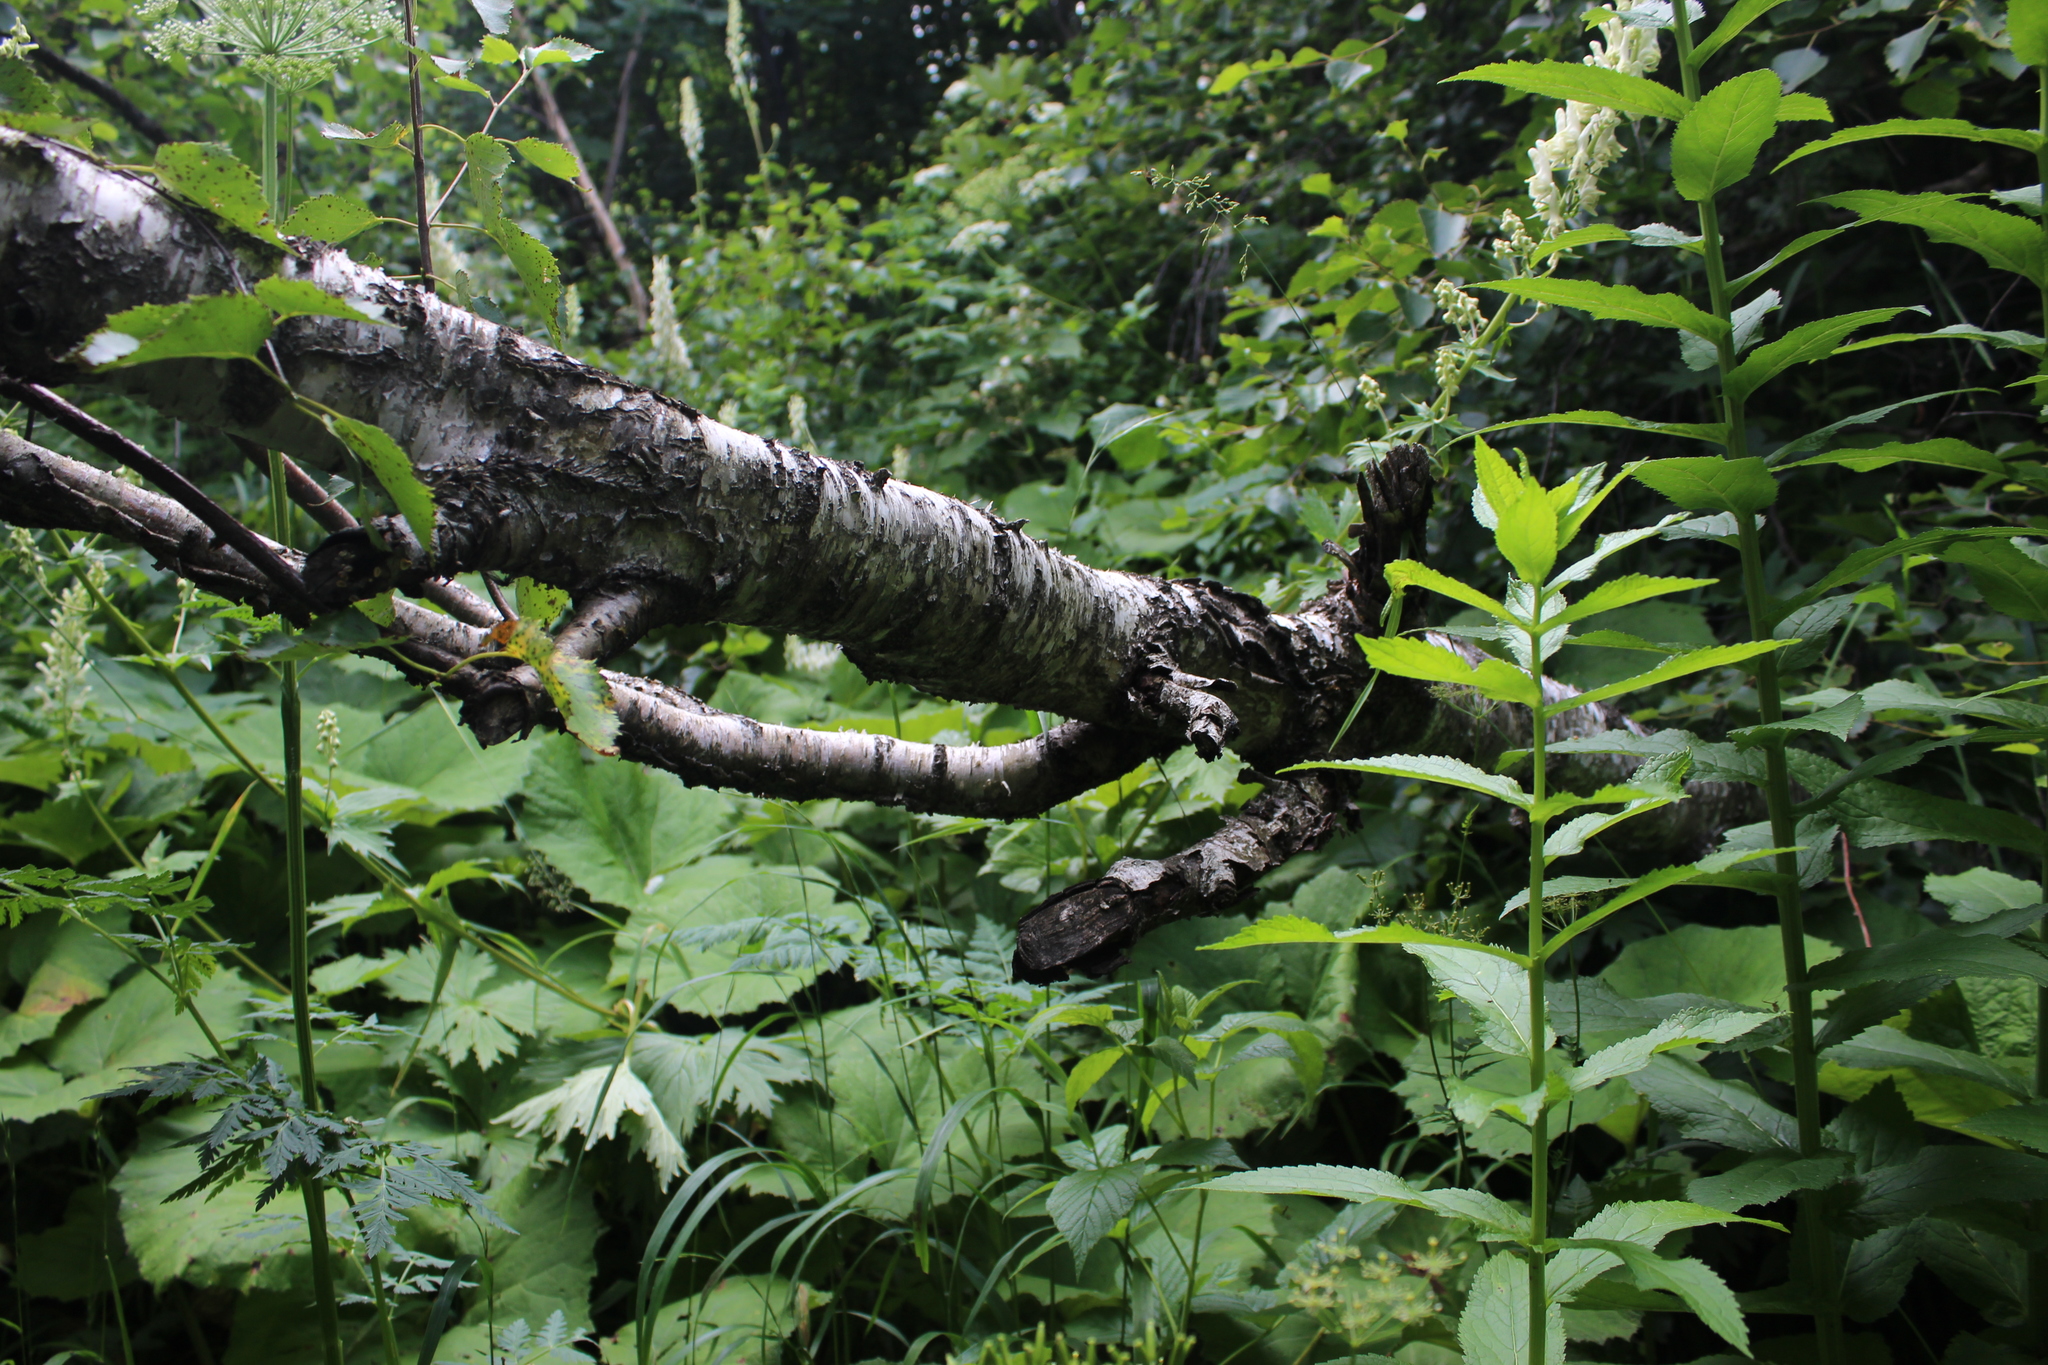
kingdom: Plantae
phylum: Tracheophyta
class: Magnoliopsida
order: Fagales
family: Betulaceae
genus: Betula
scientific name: Betula pendula
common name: Silver birch
